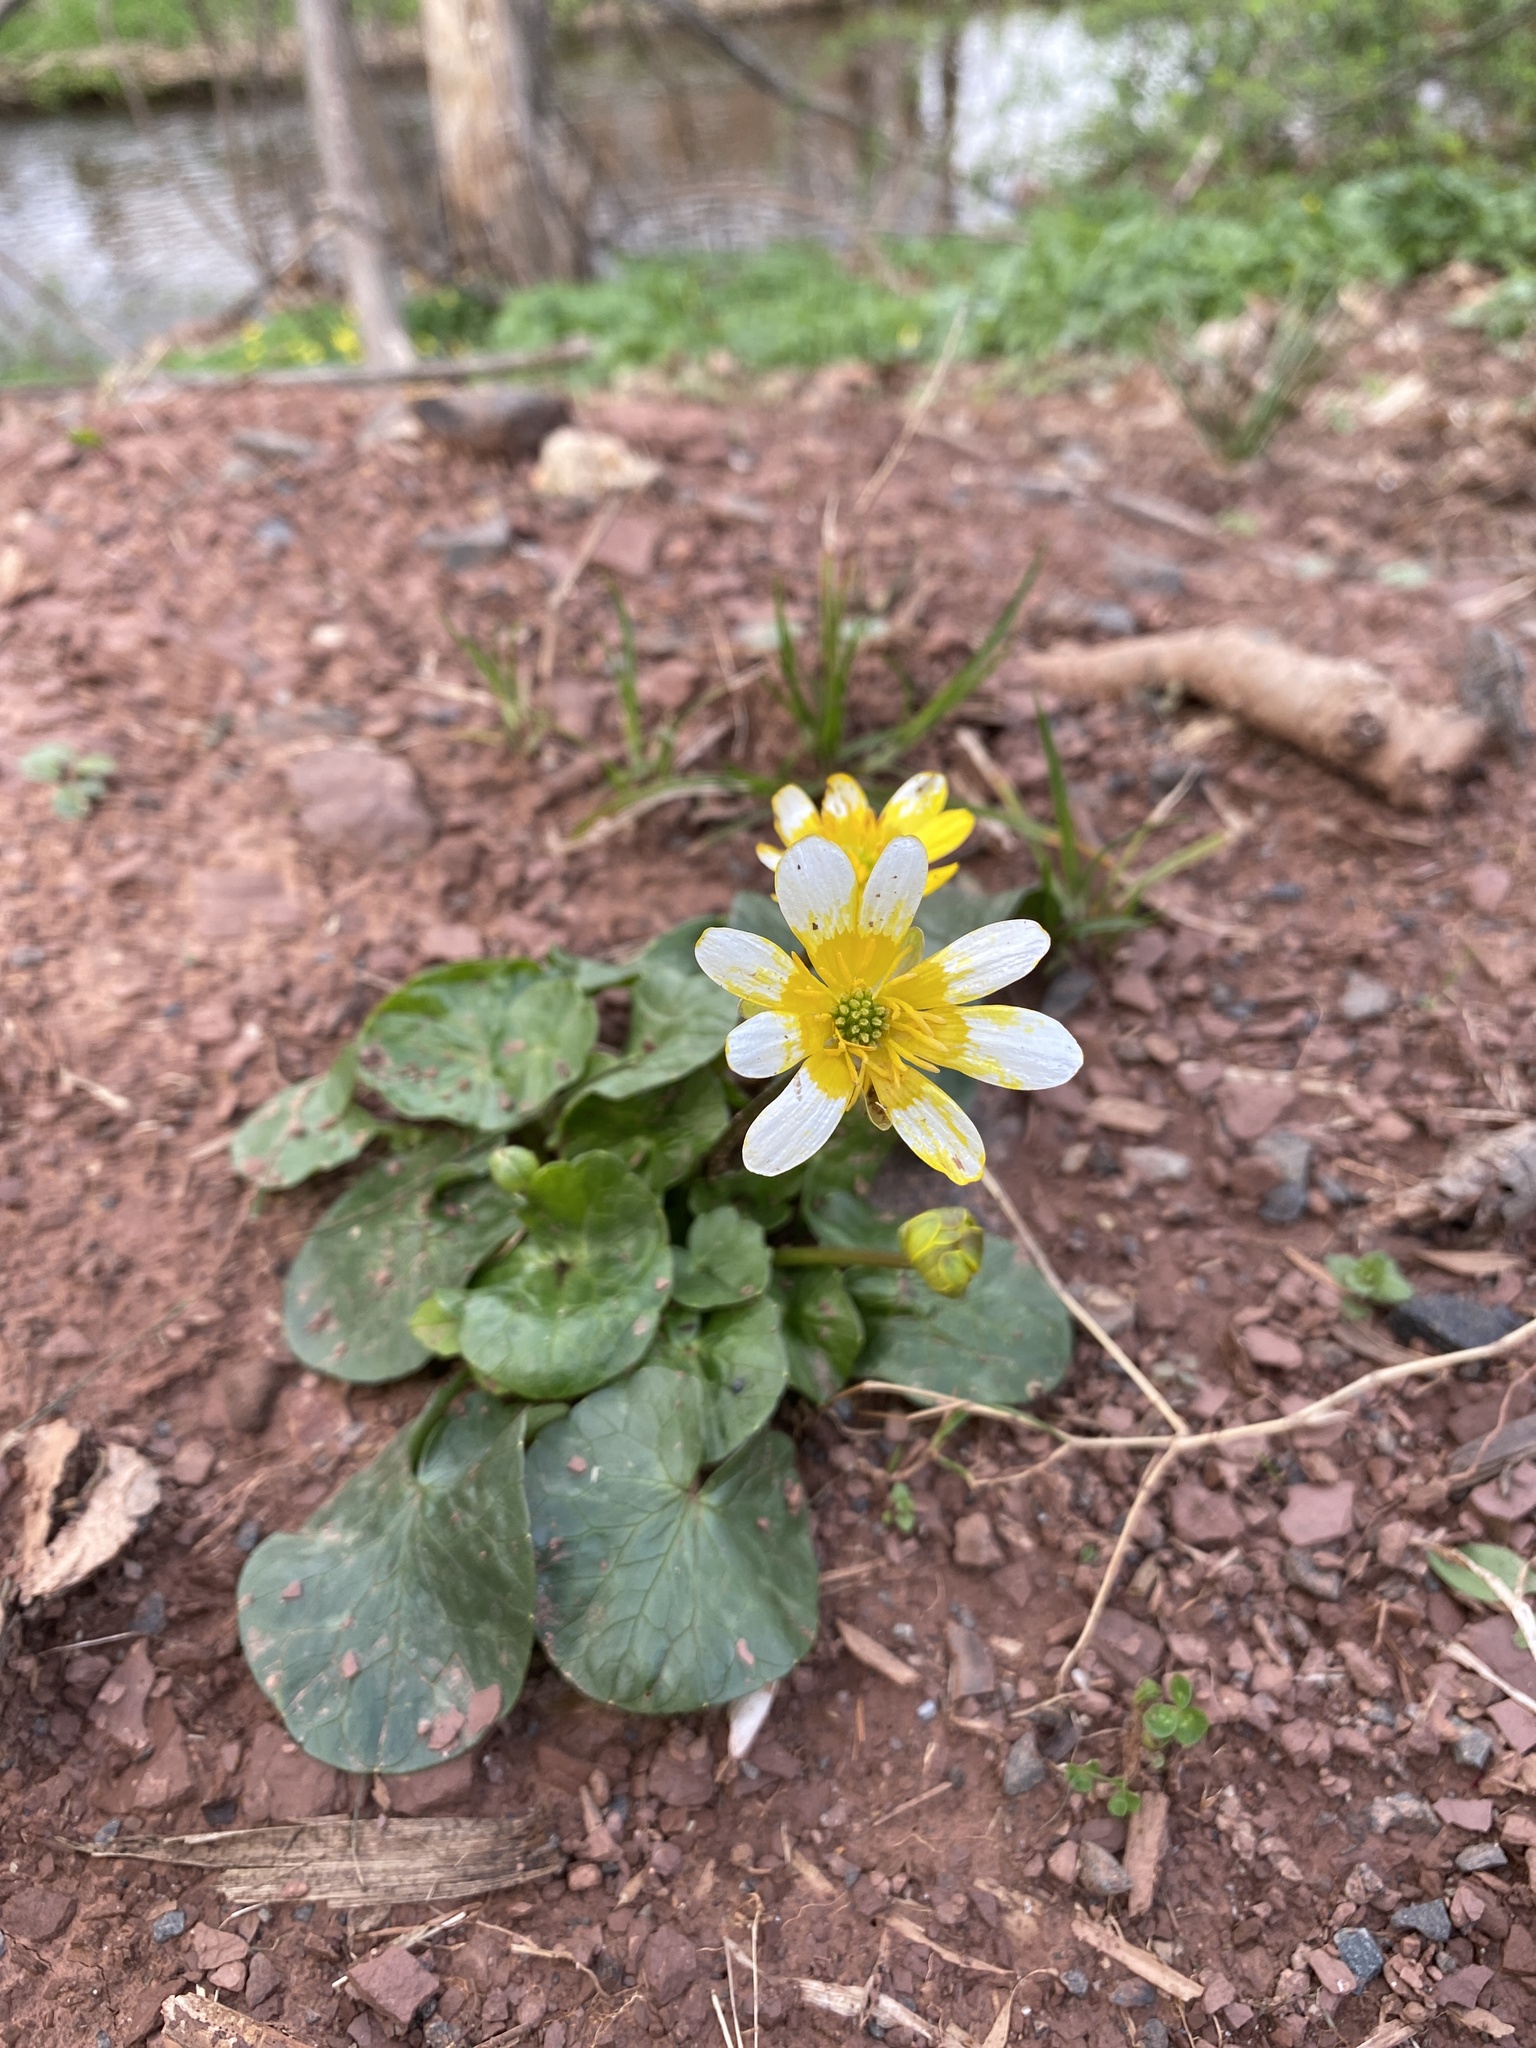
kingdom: Plantae
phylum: Tracheophyta
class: Magnoliopsida
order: Ranunculales
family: Ranunculaceae
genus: Ficaria
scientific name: Ficaria verna
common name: Lesser celandine
